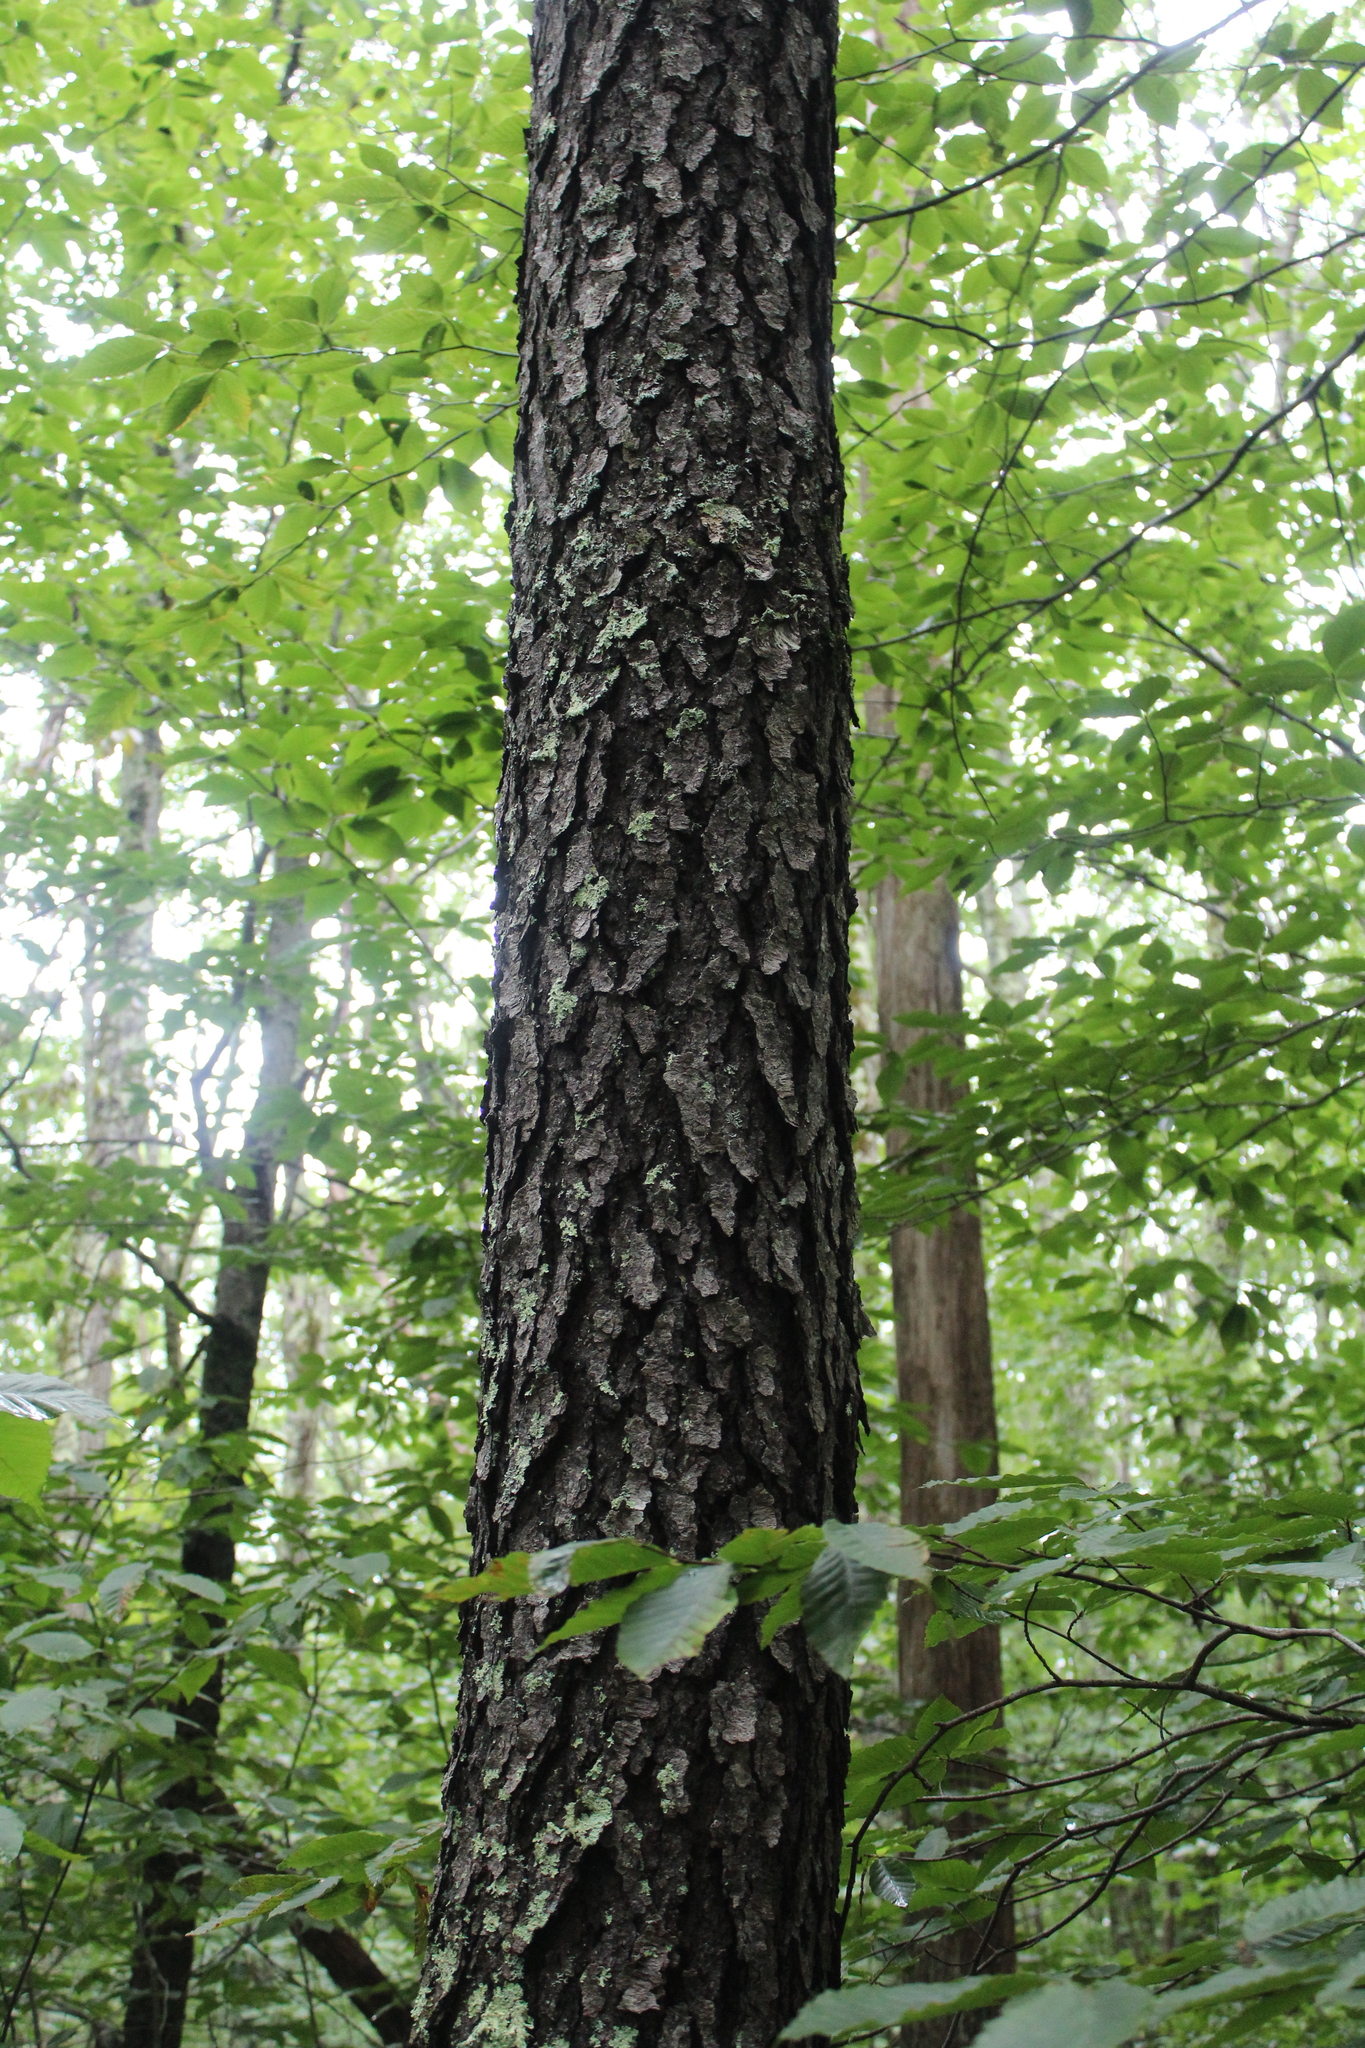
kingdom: Plantae
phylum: Tracheophyta
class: Magnoliopsida
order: Rosales
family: Rosaceae
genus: Prunus
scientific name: Prunus serotina
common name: Black cherry
